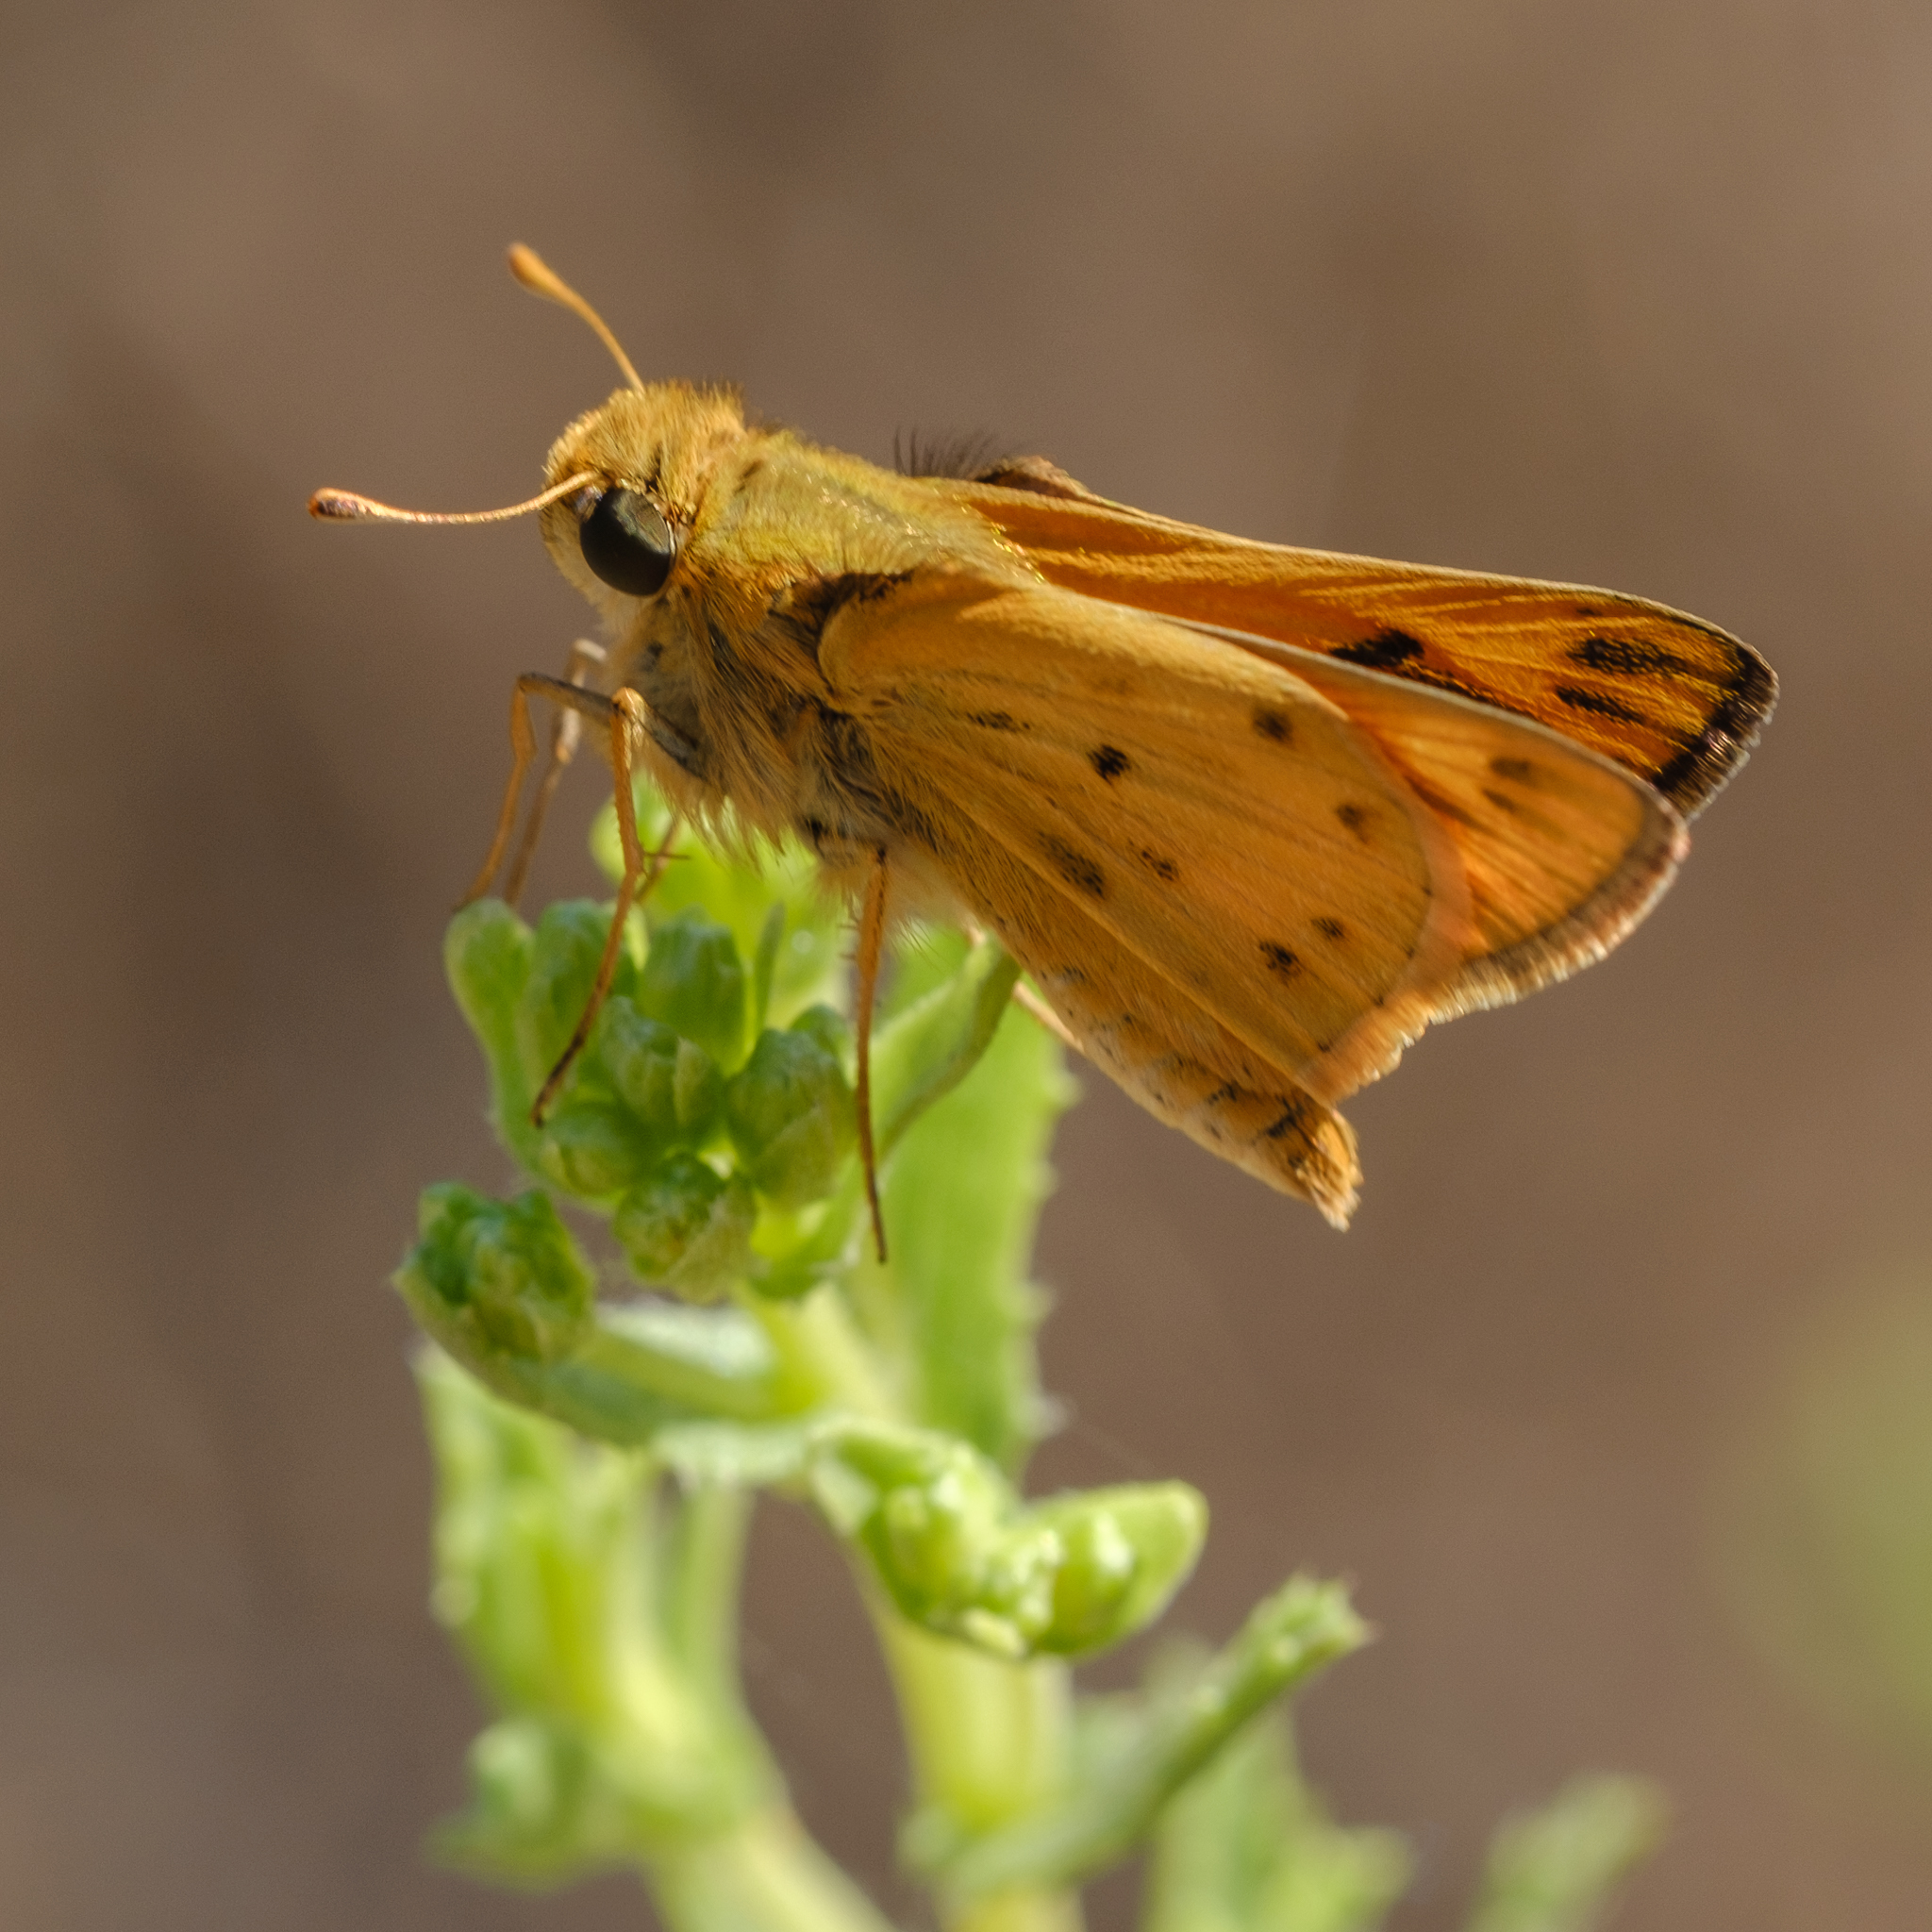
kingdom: Animalia
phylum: Arthropoda
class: Insecta
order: Lepidoptera
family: Hesperiidae
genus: Hylephila
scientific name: Hylephila phyleus
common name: Fiery skipper
